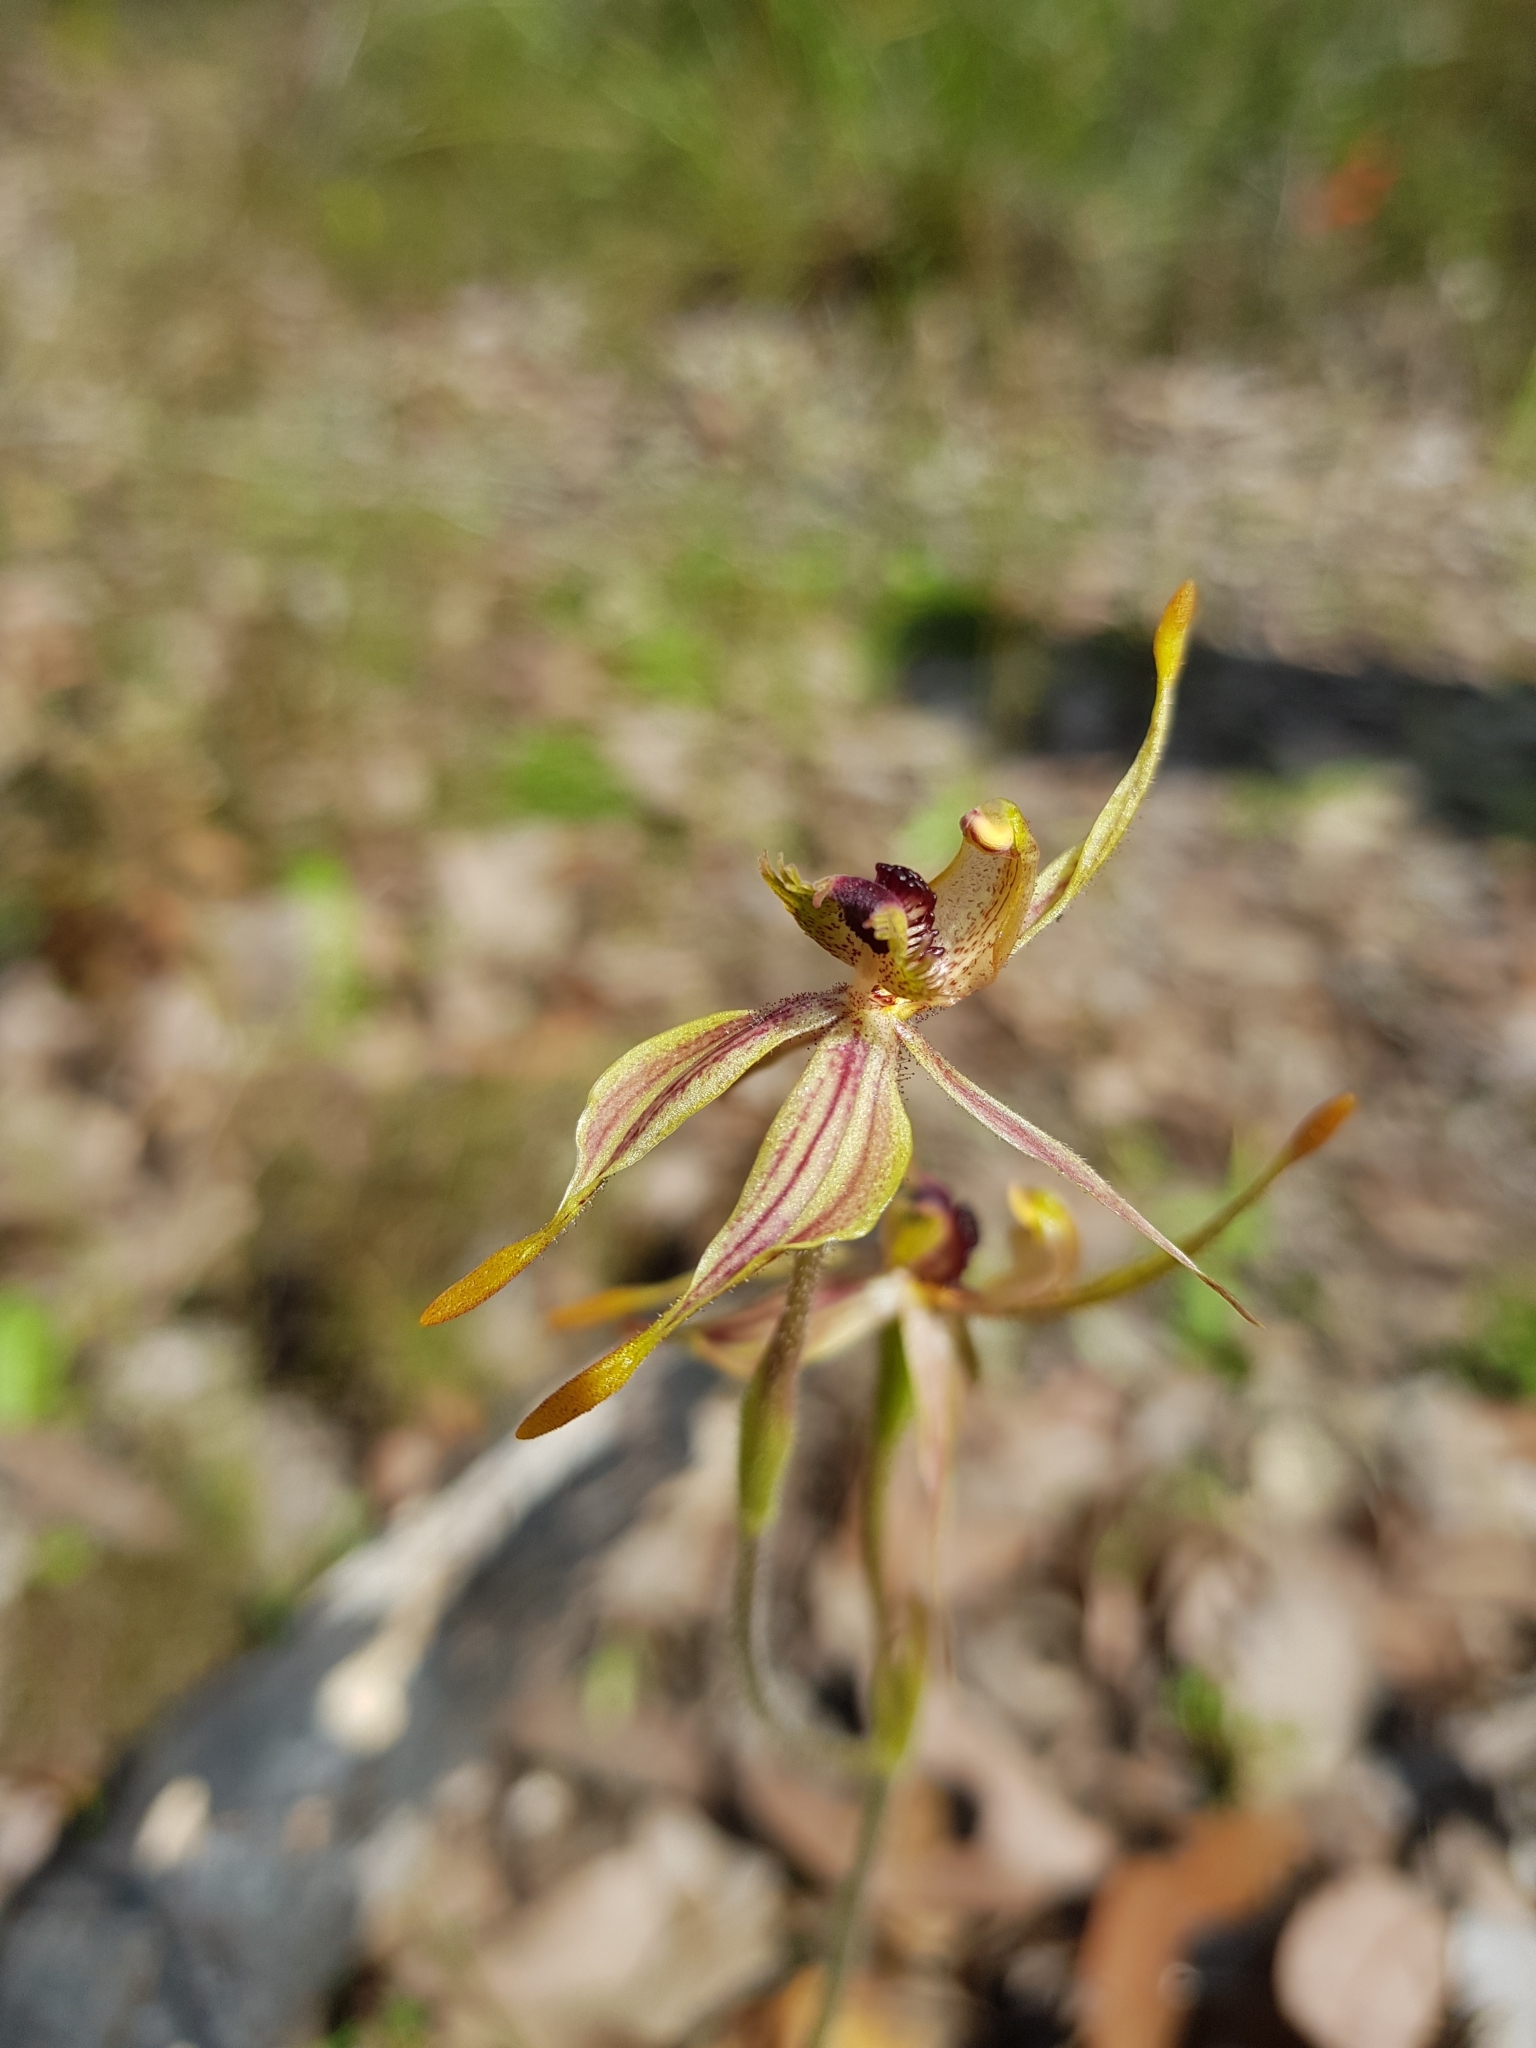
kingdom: Plantae
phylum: Tracheophyta
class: Liliopsida
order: Asparagales
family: Orchidaceae
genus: Caladenia
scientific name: Caladenia plicata
